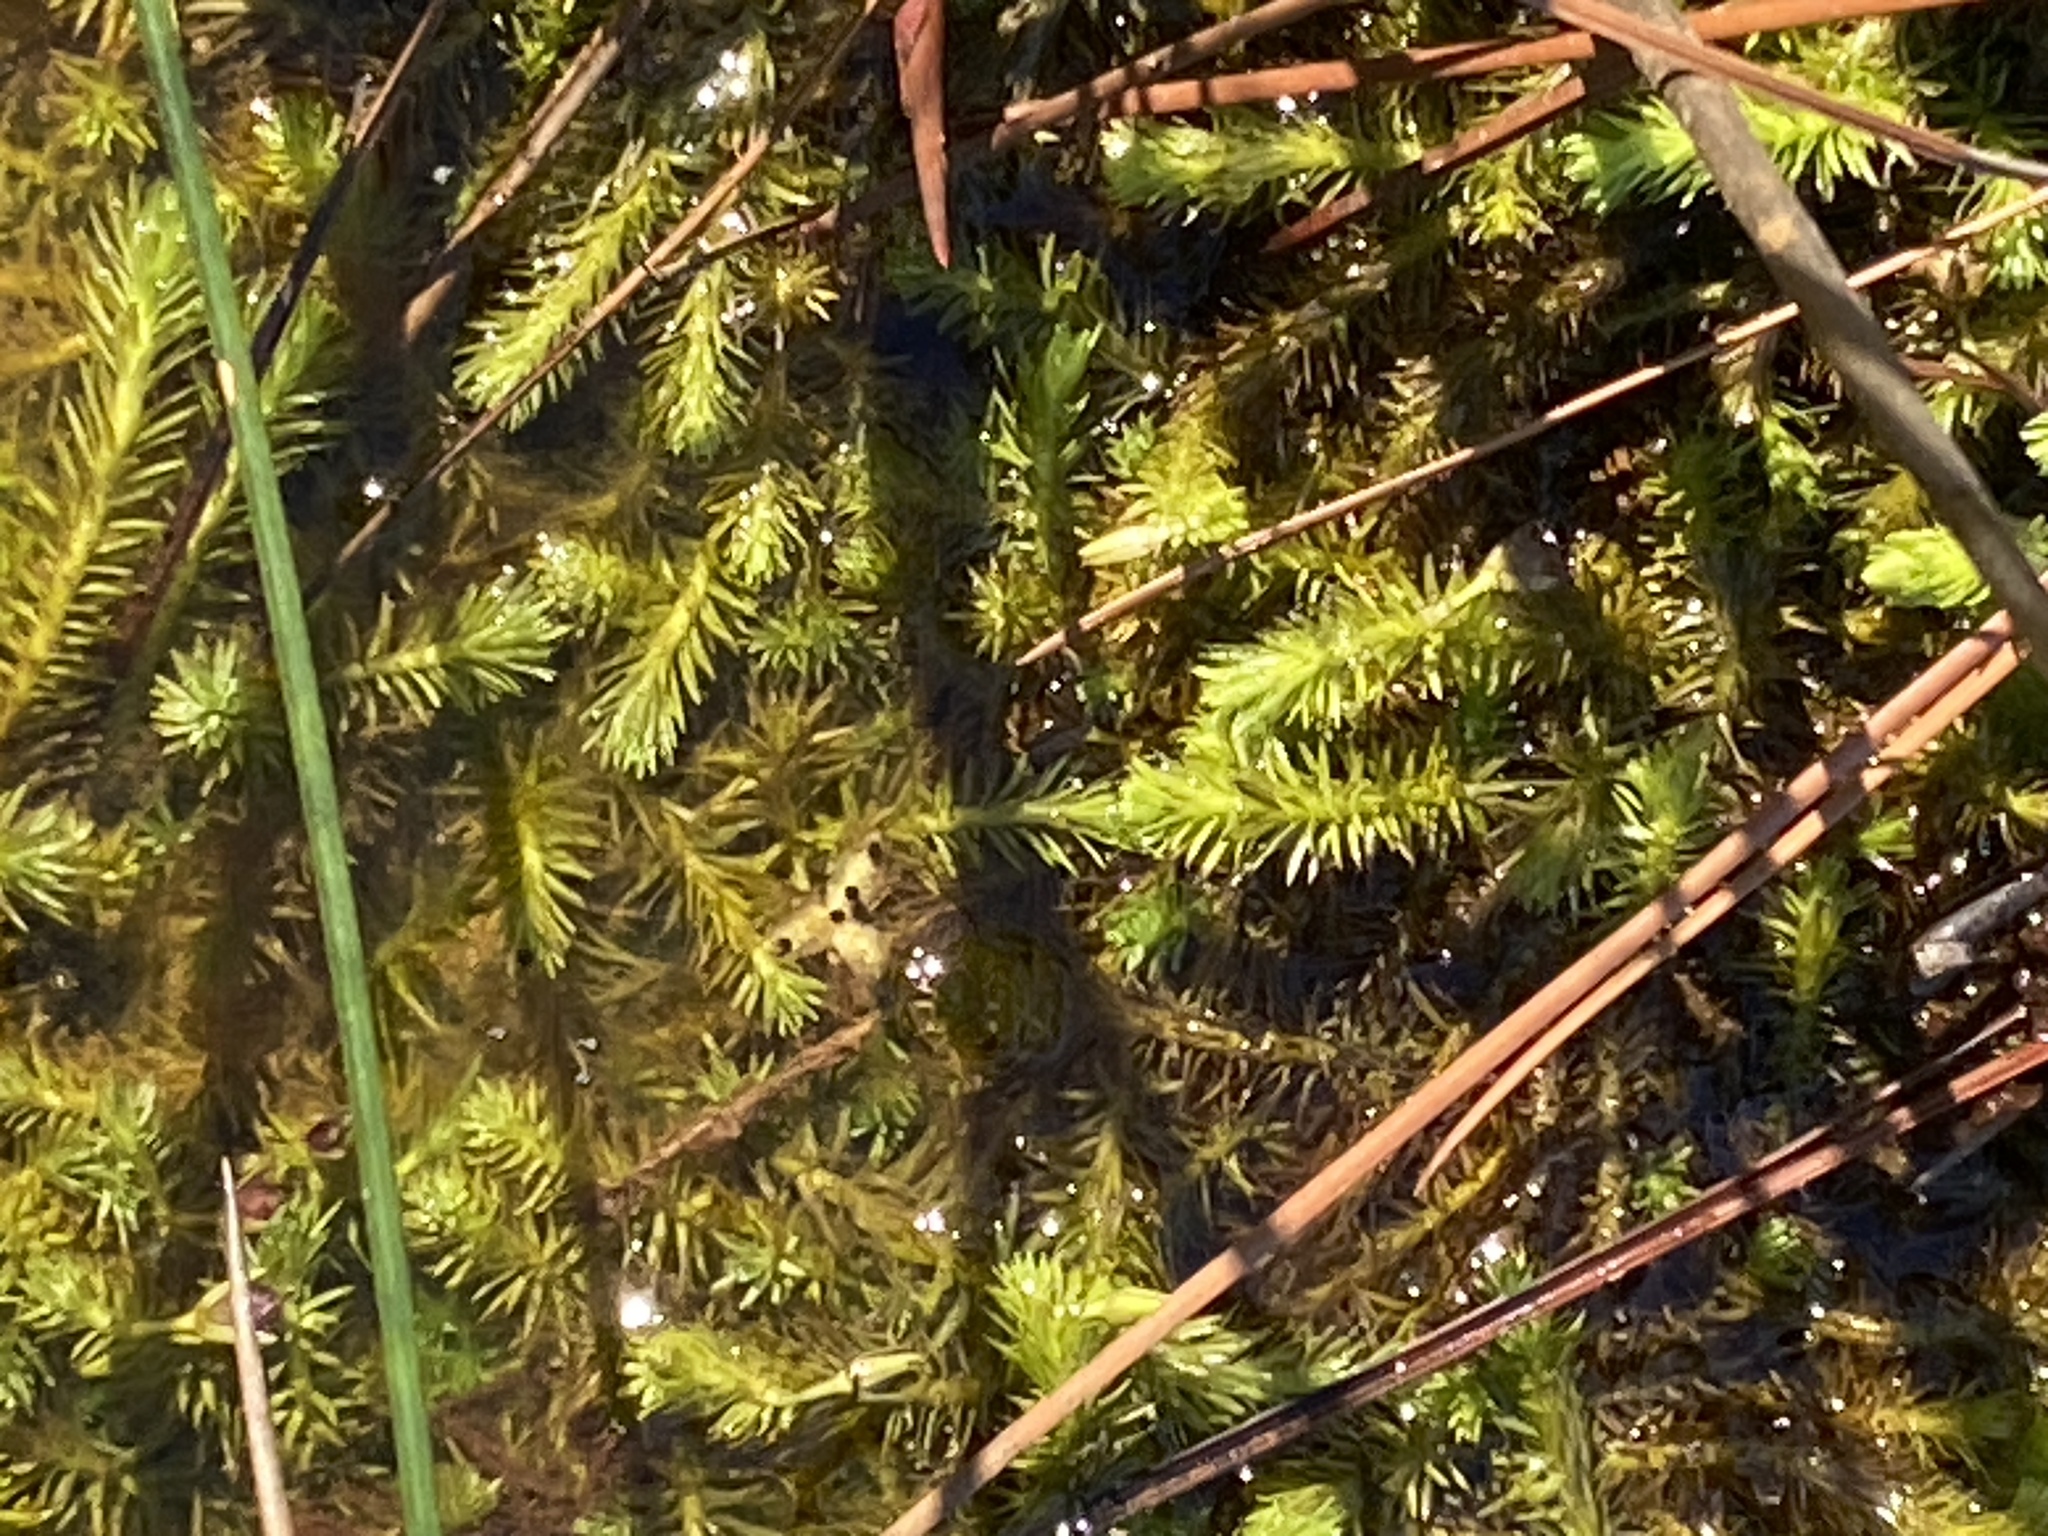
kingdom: Plantae
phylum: Tracheophyta
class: Liliopsida
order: Poales
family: Mayacaceae
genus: Mayaca
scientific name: Mayaca fluviatilis
